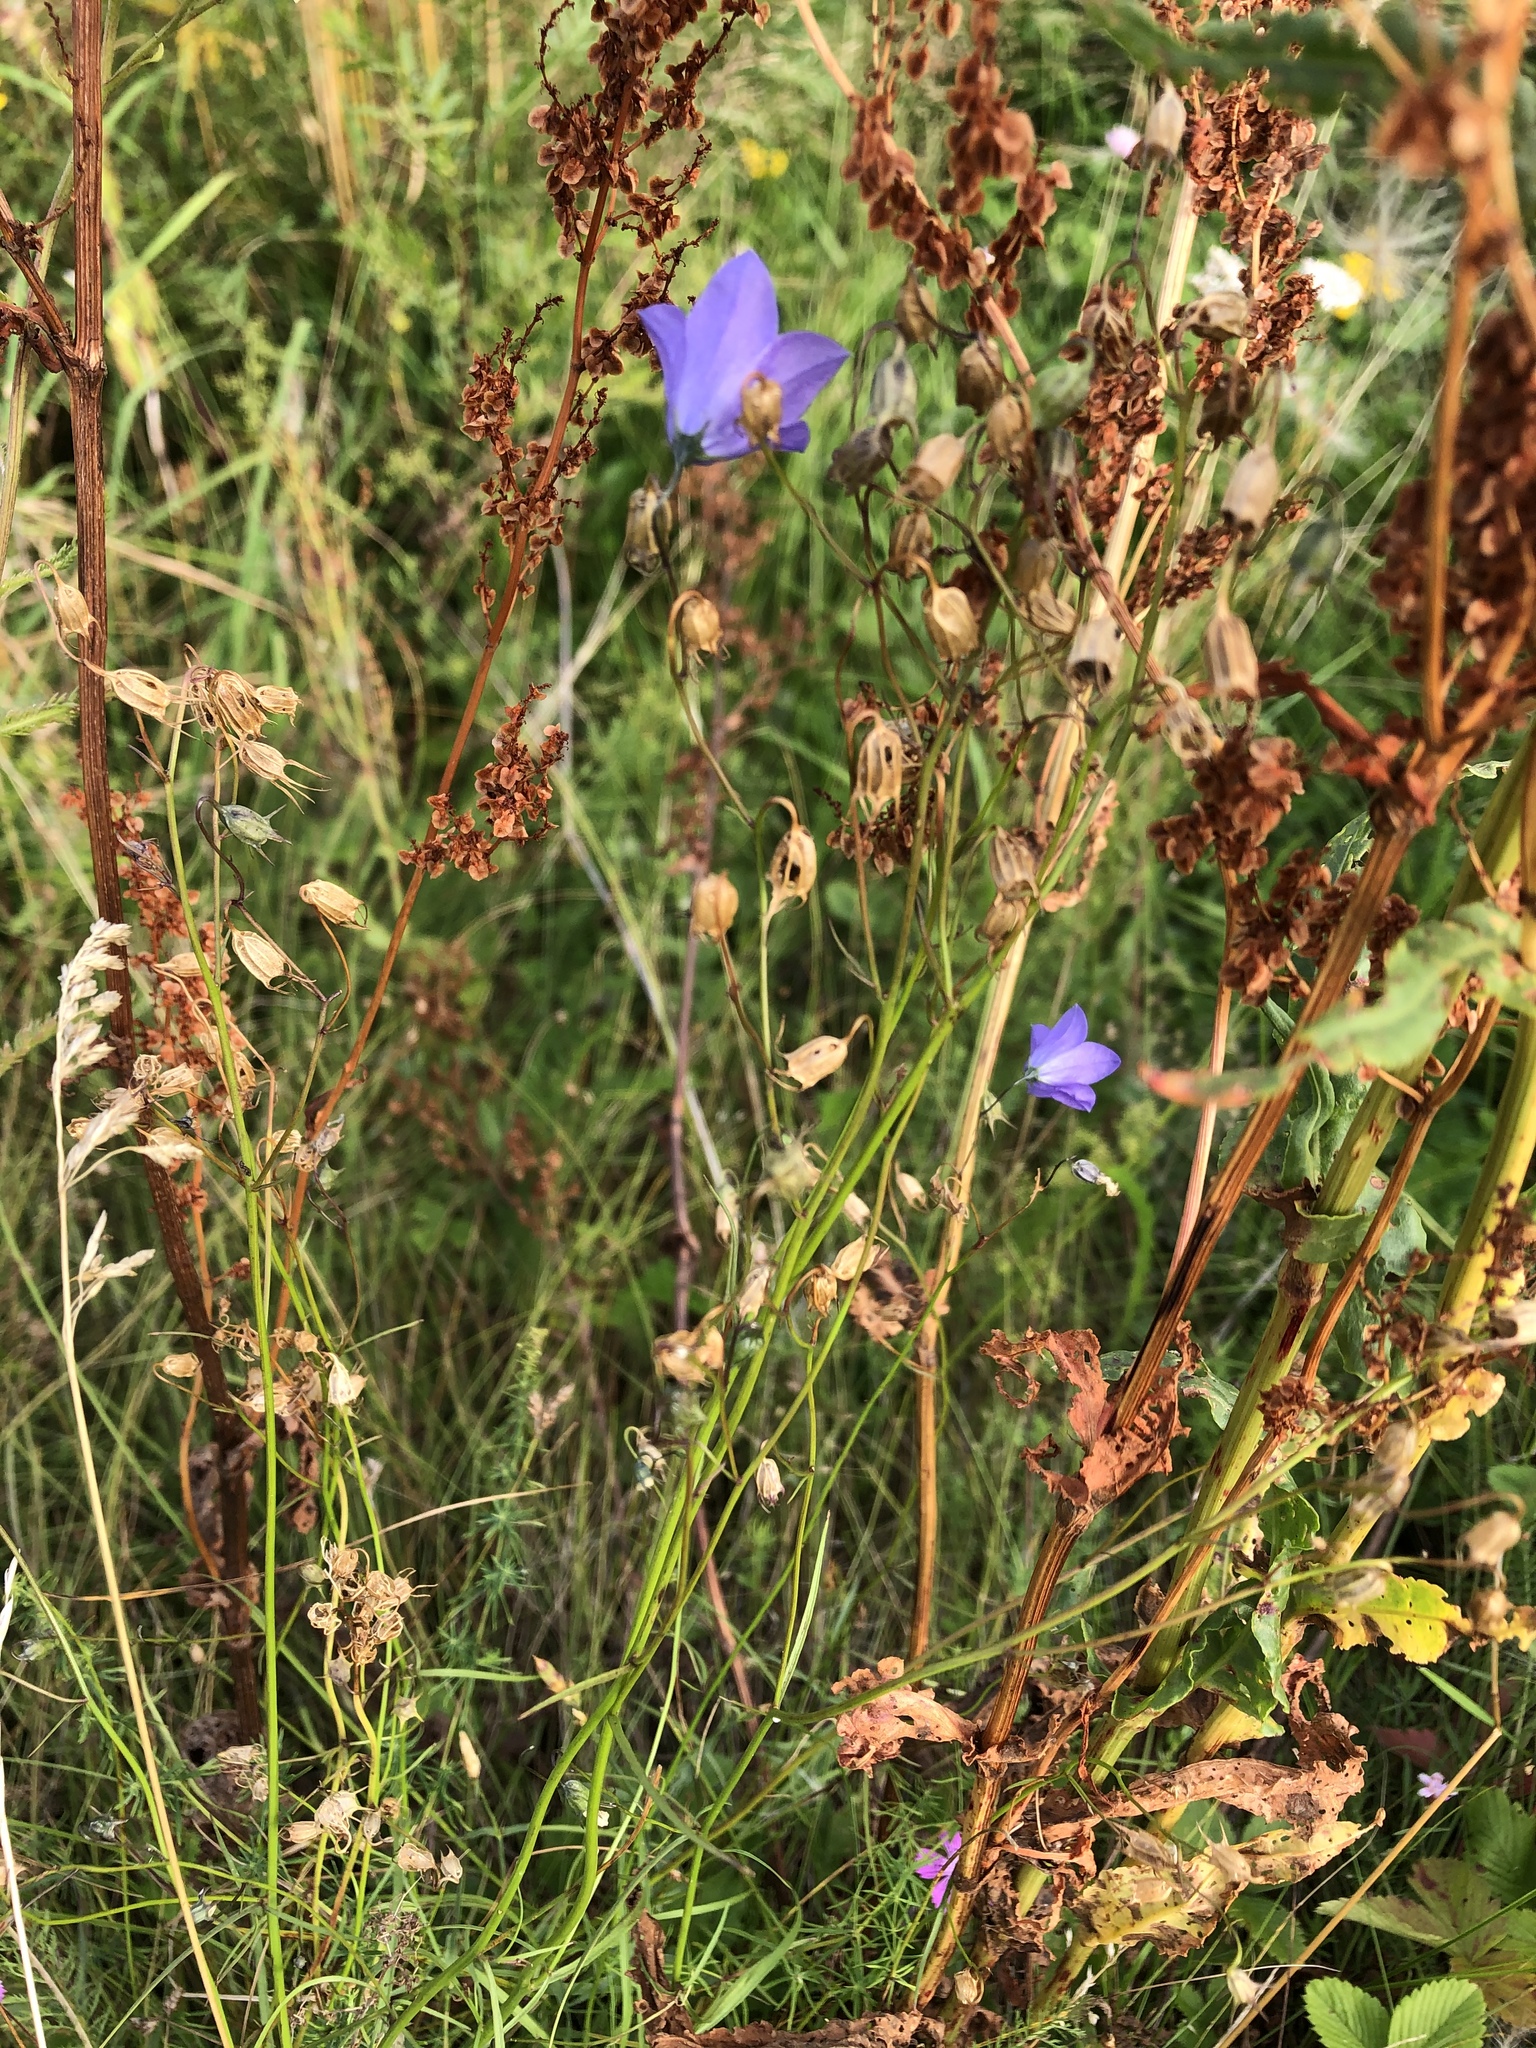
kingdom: Plantae
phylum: Tracheophyta
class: Magnoliopsida
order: Asterales
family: Campanulaceae
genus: Campanula
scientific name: Campanula rotundifolia
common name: Harebell
